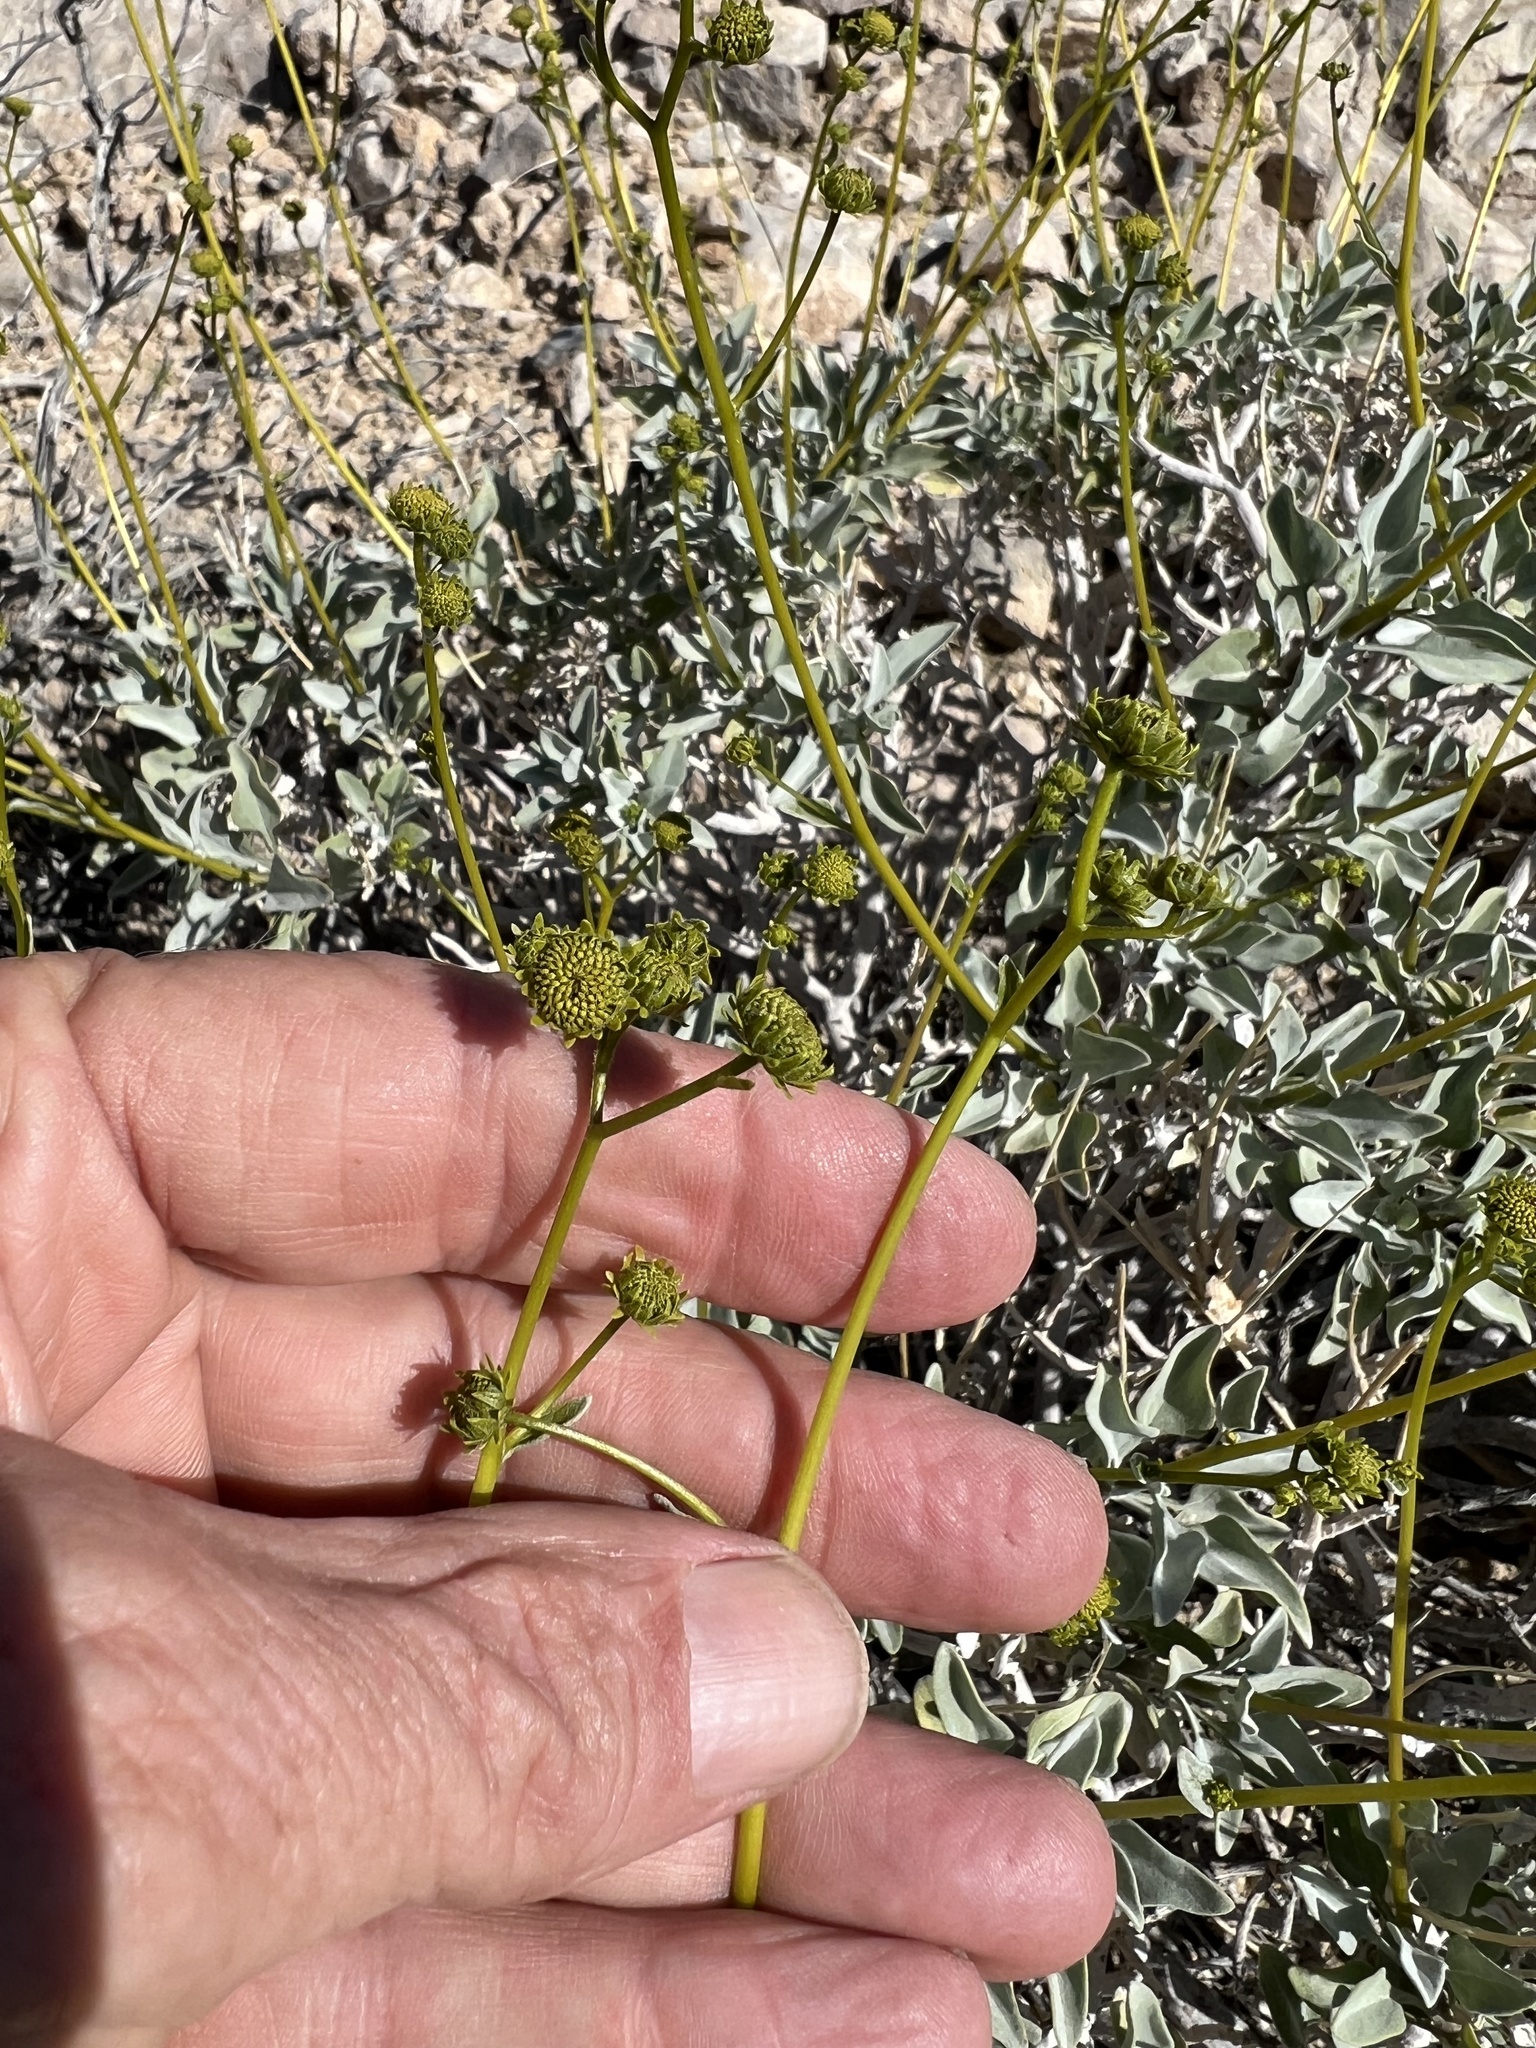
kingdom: Plantae
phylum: Tracheophyta
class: Magnoliopsida
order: Asterales
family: Asteraceae
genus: Encelia
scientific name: Encelia farinosa
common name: Brittlebush
